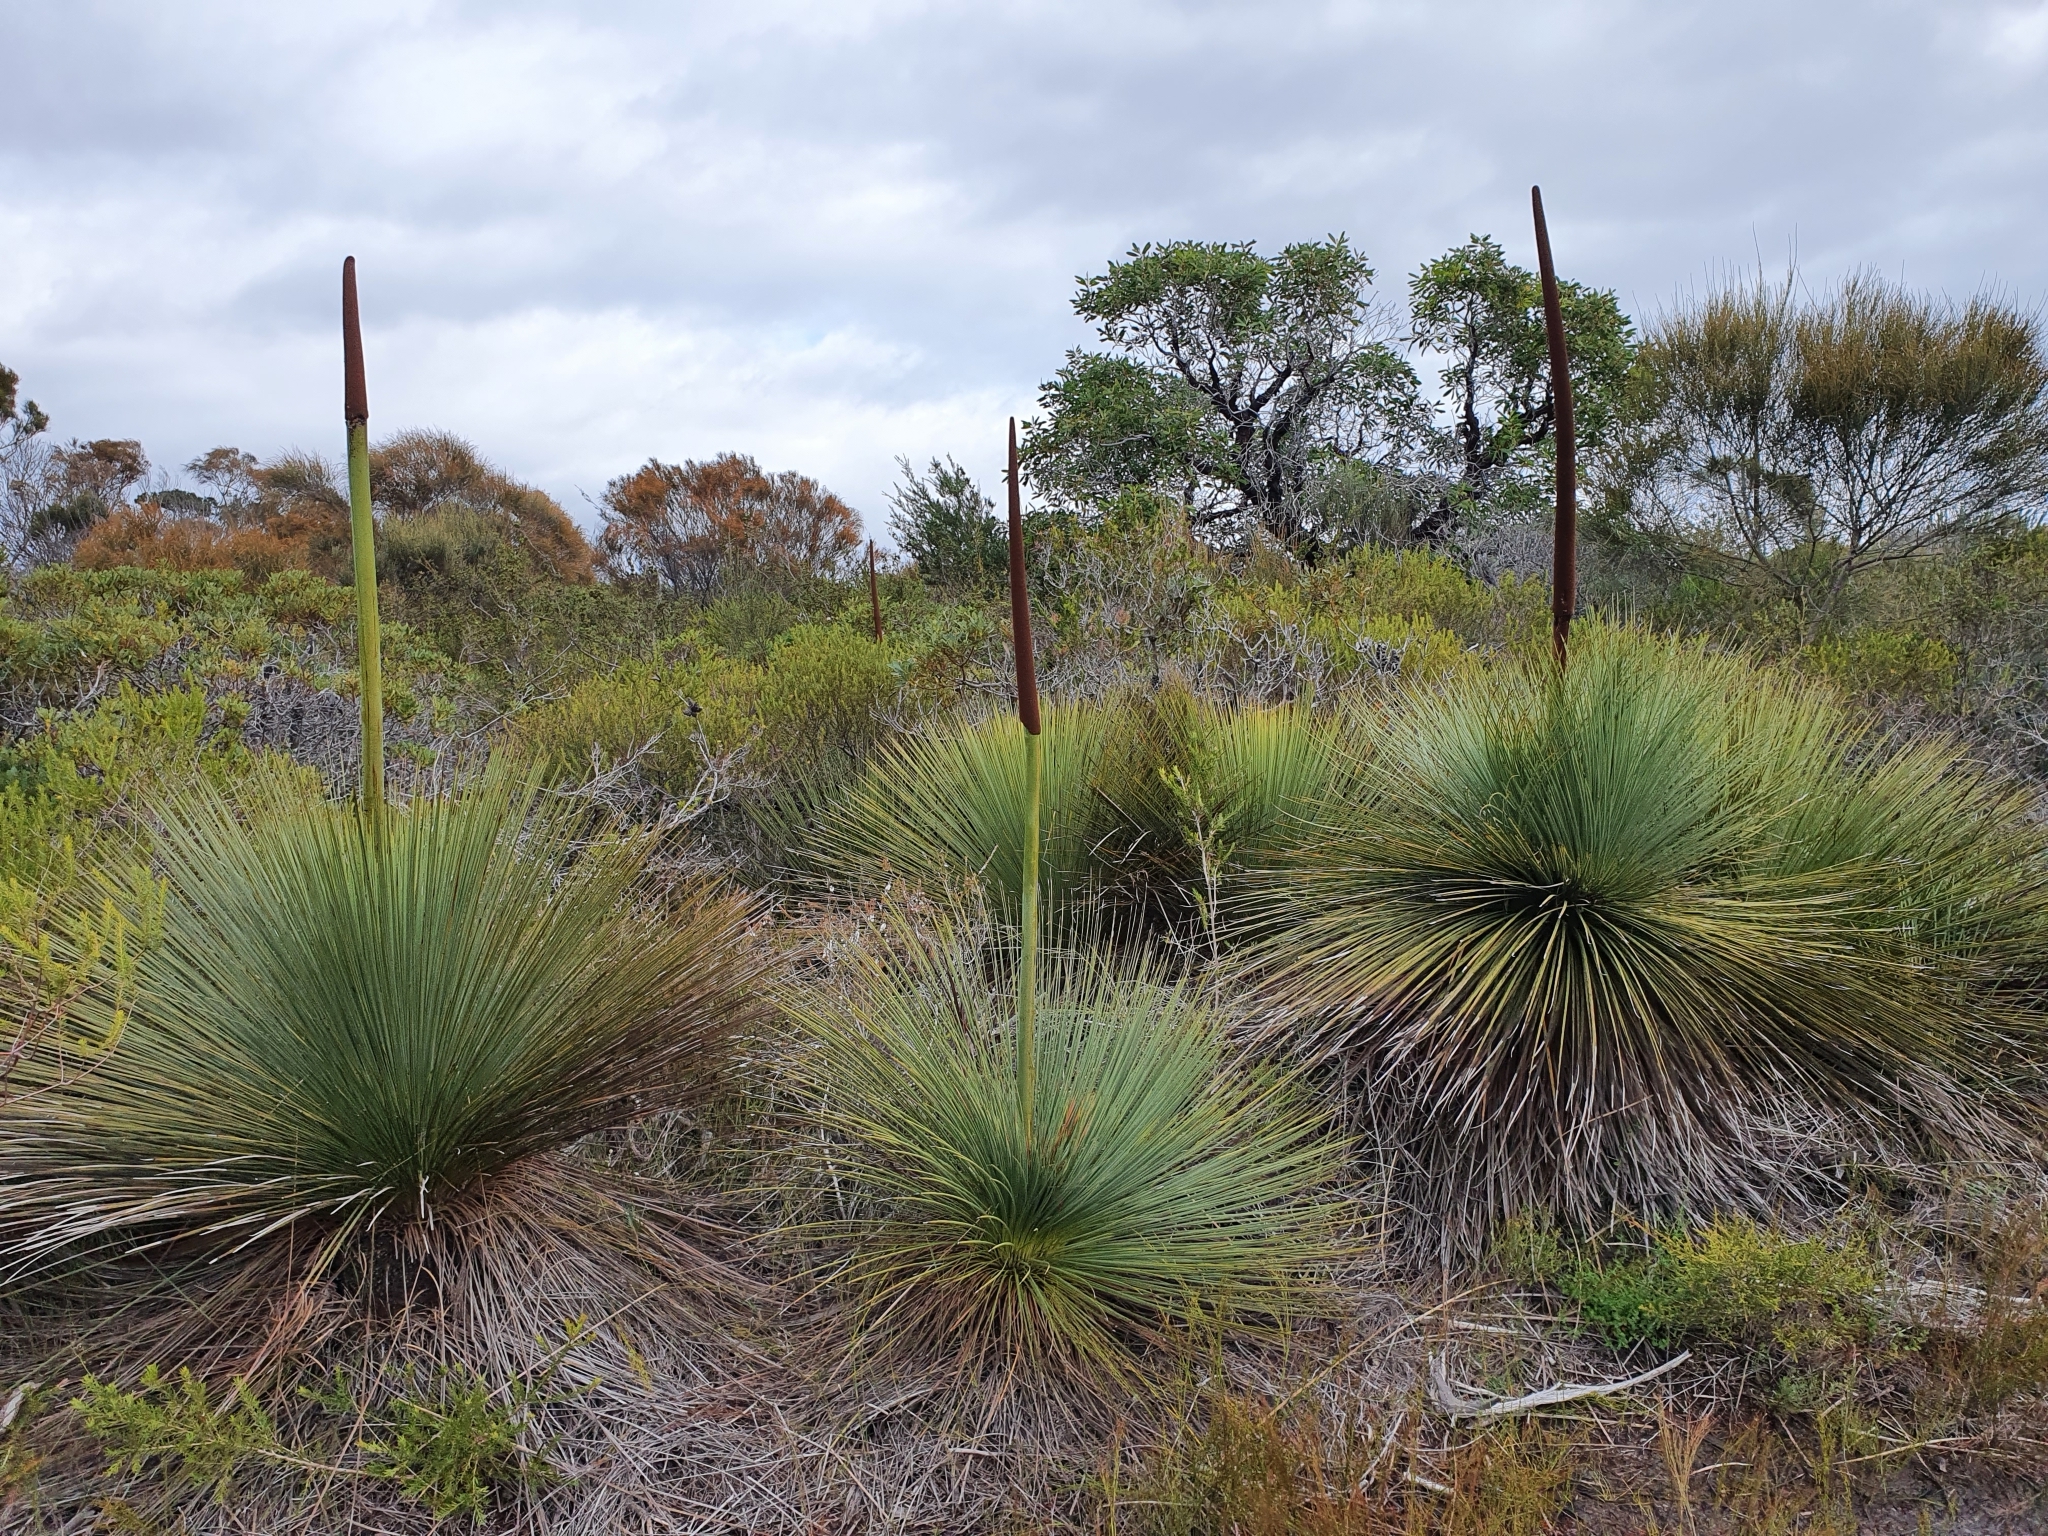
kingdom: Plantae
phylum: Tracheophyta
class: Liliopsida
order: Asparagales
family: Asphodelaceae
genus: Xanthorrhoea
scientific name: Xanthorrhoea australis
